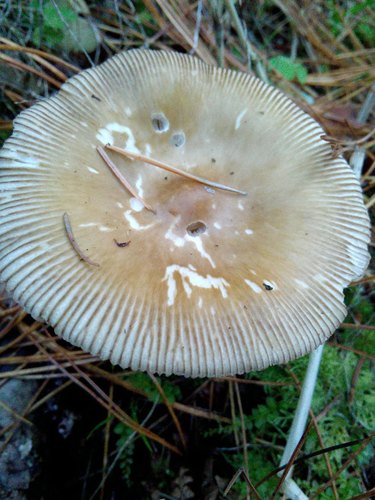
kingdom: Fungi
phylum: Basidiomycota
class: Agaricomycetes
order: Agaricales
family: Amanitaceae
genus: Amanita
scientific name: Amanita battarrae
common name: Banded amanita
